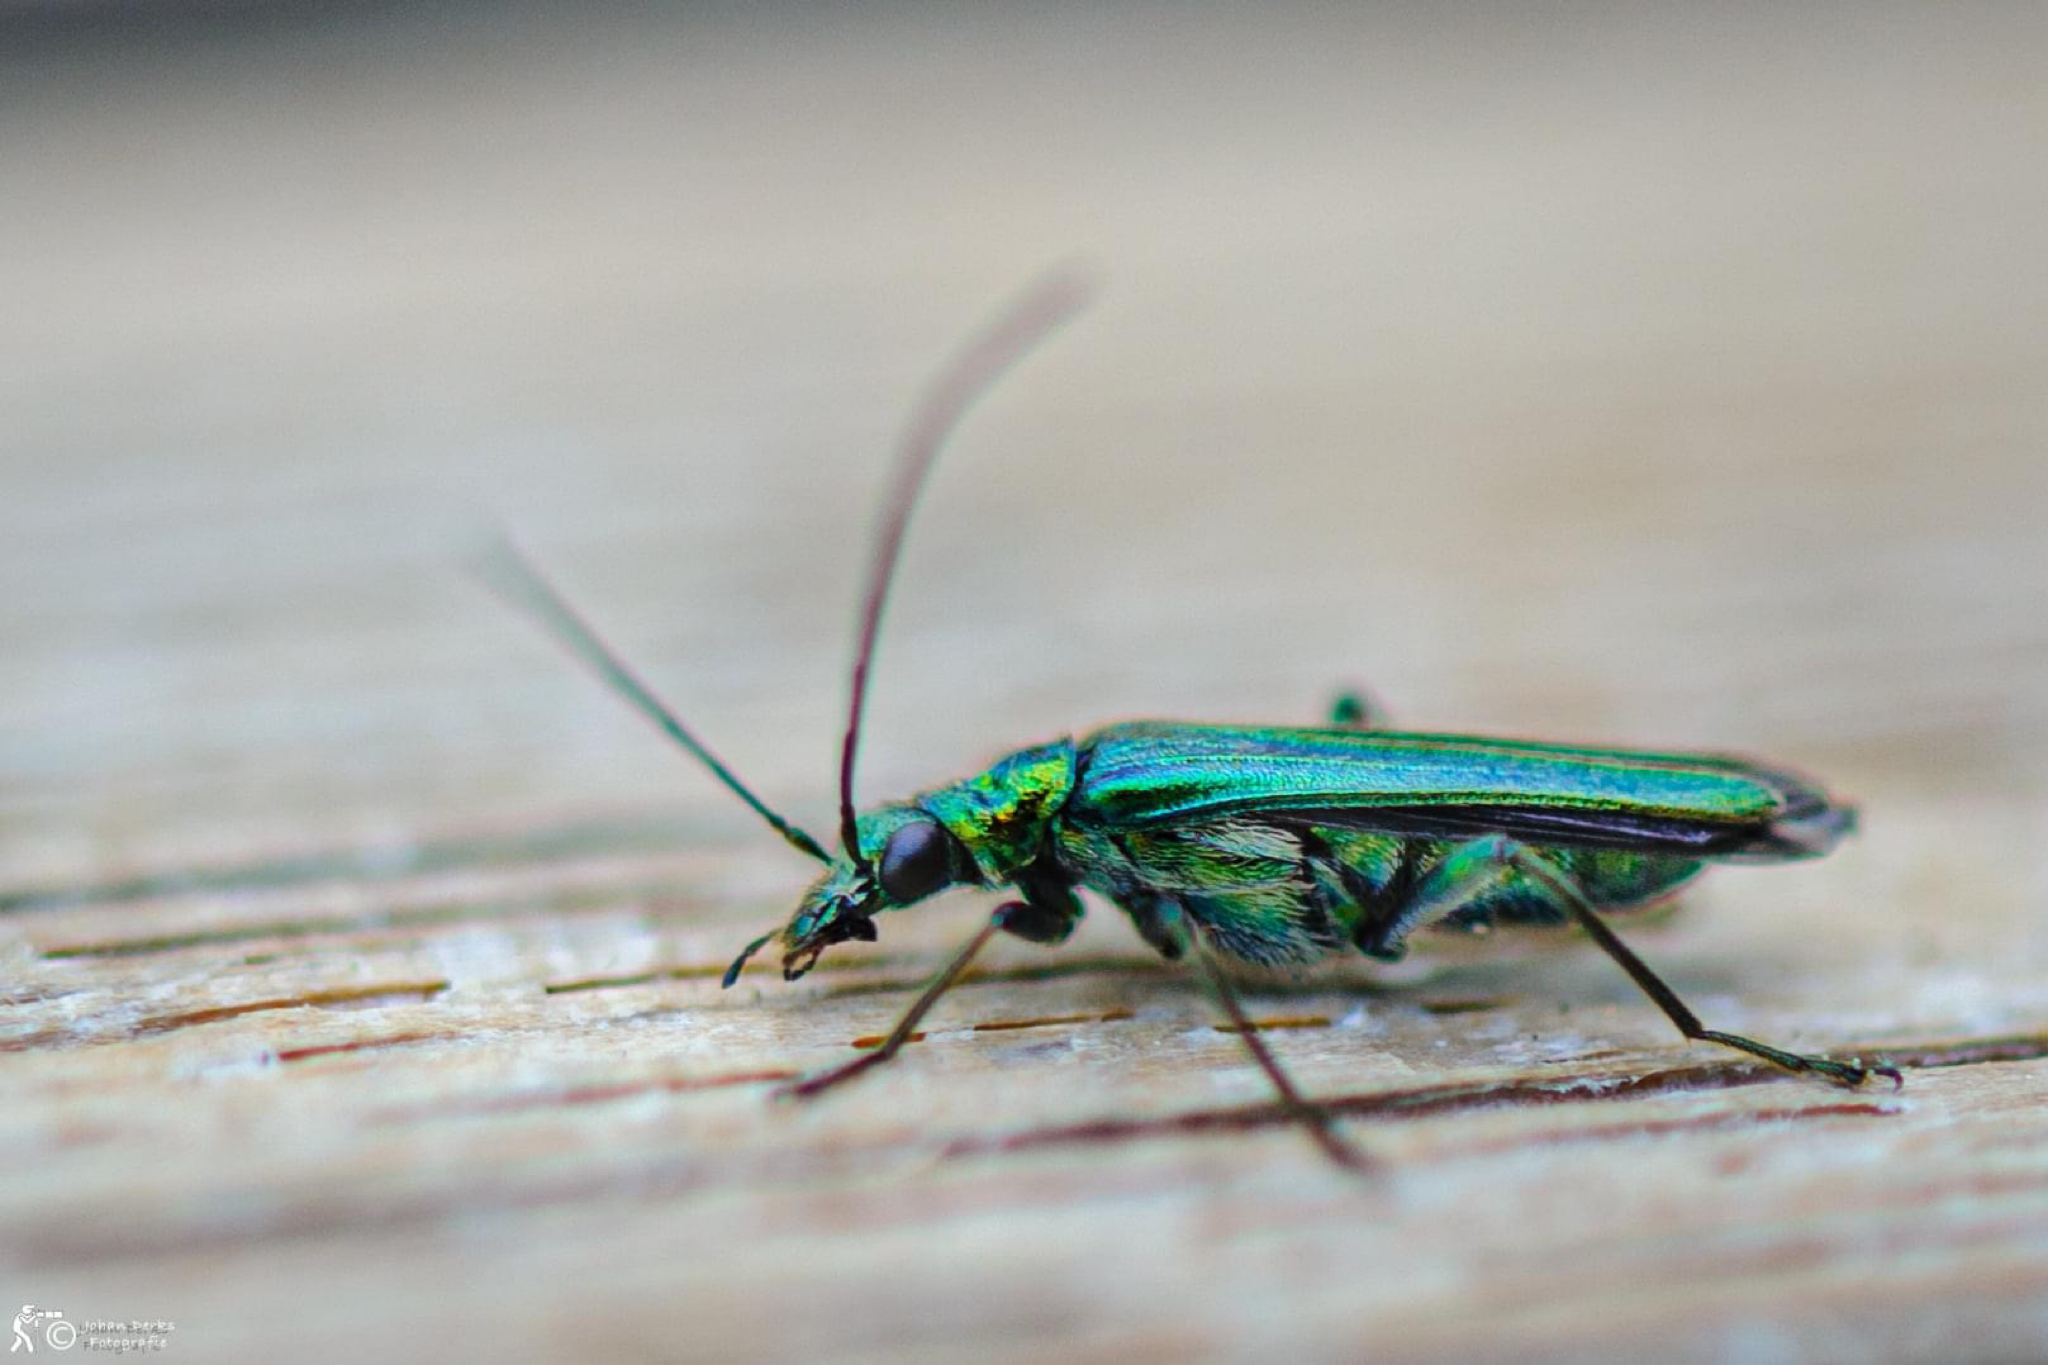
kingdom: Animalia
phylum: Arthropoda
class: Insecta
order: Coleoptera
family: Oedemeridae
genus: Oedemera
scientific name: Oedemera nobilis
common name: Swollen-thighed beetle
